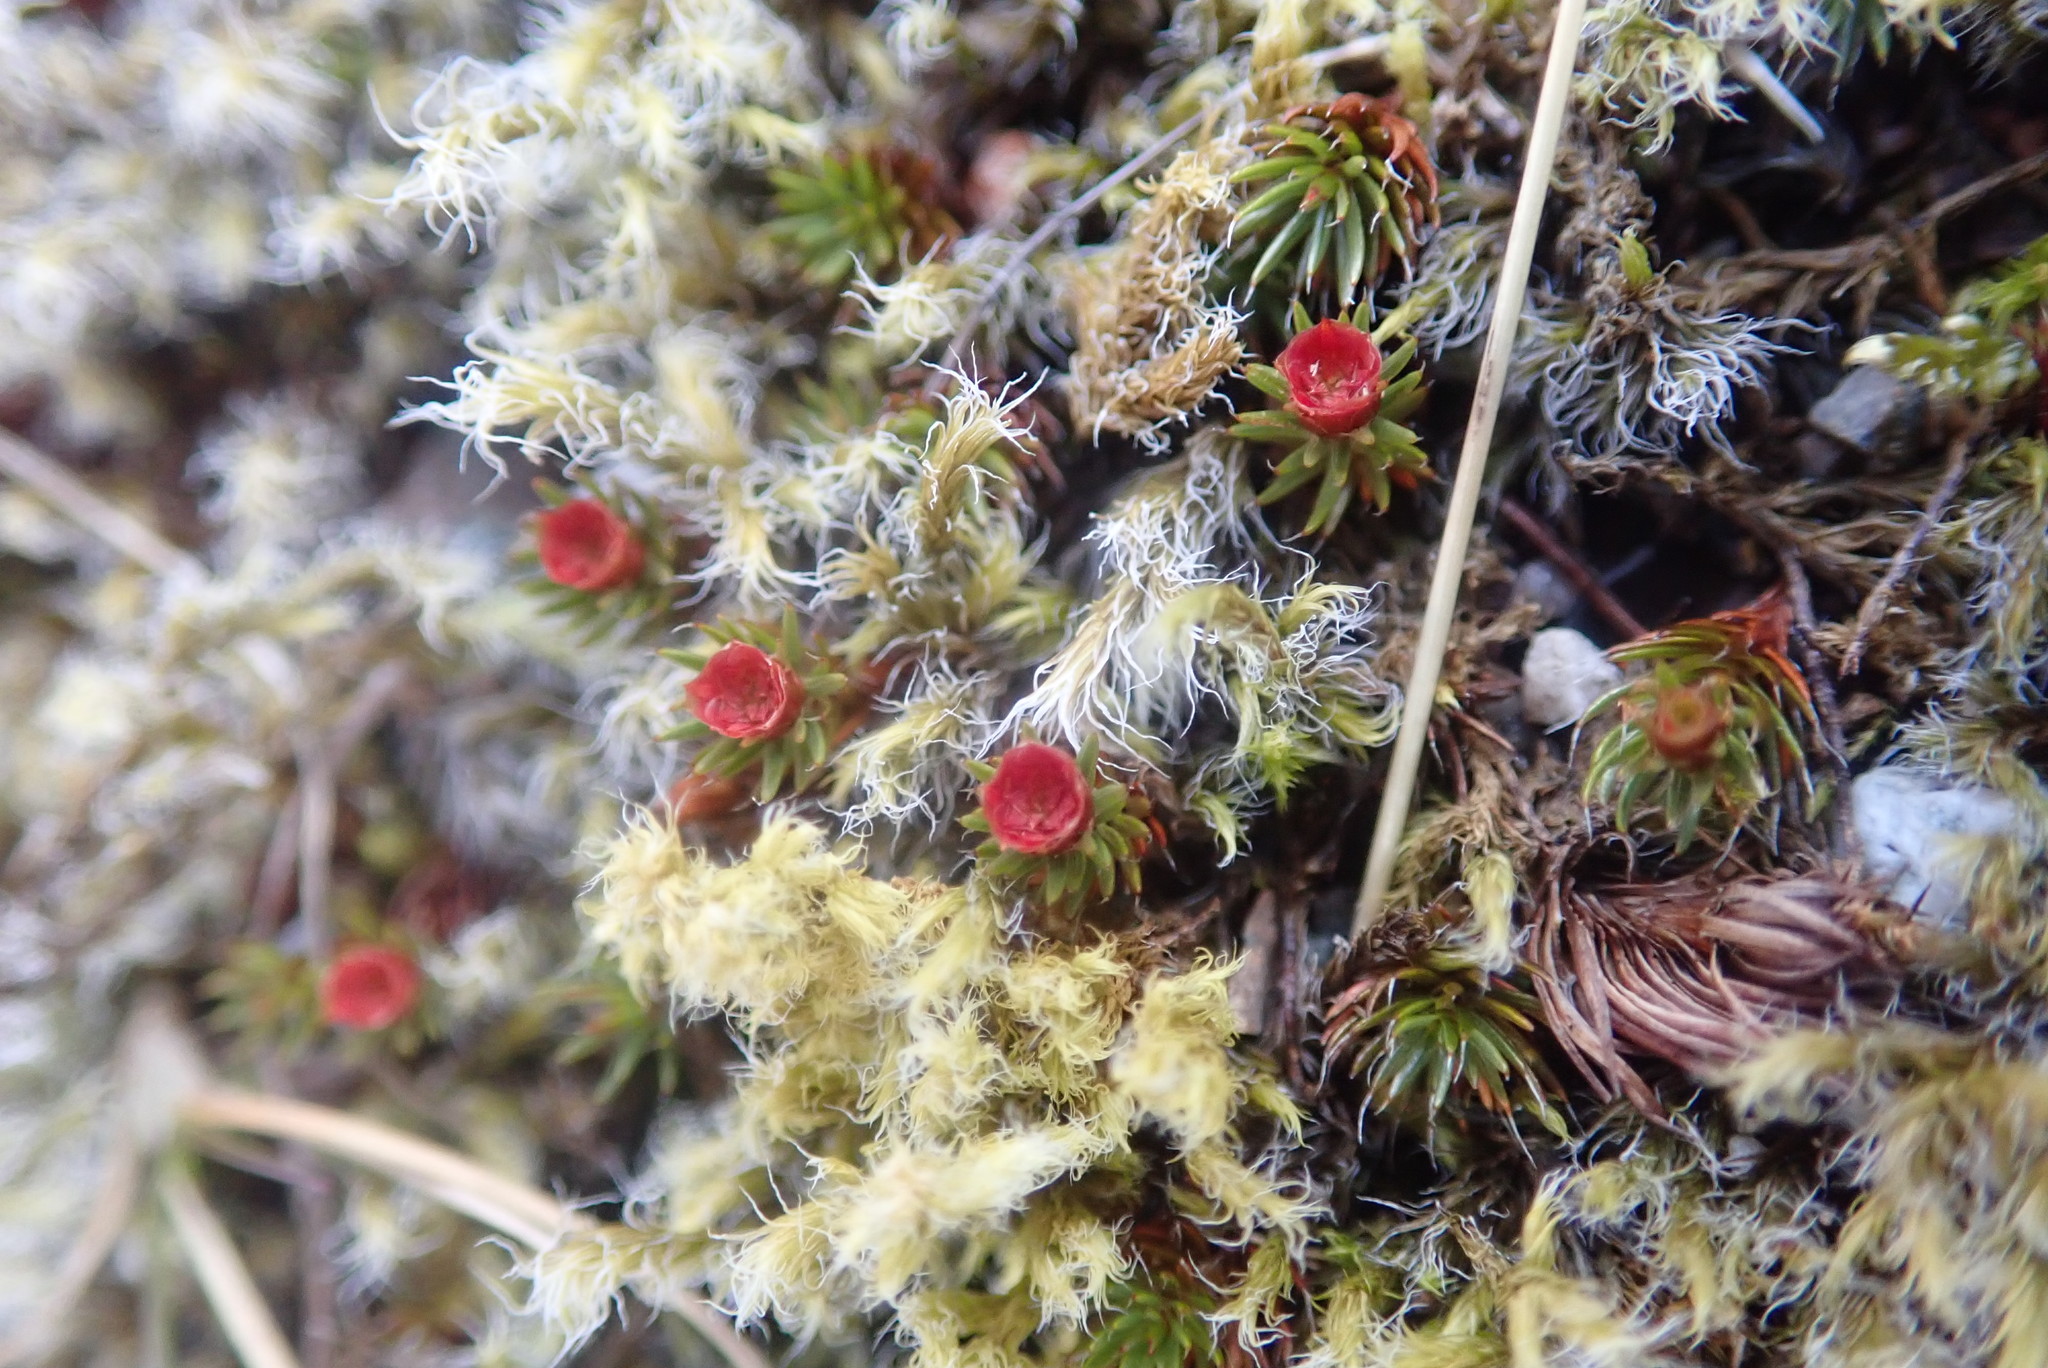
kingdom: Plantae
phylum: Bryophyta
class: Polytrichopsida
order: Polytrichales
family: Polytrichaceae
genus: Polytrichum
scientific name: Polytrichum piliferum
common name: Bristly haircap
